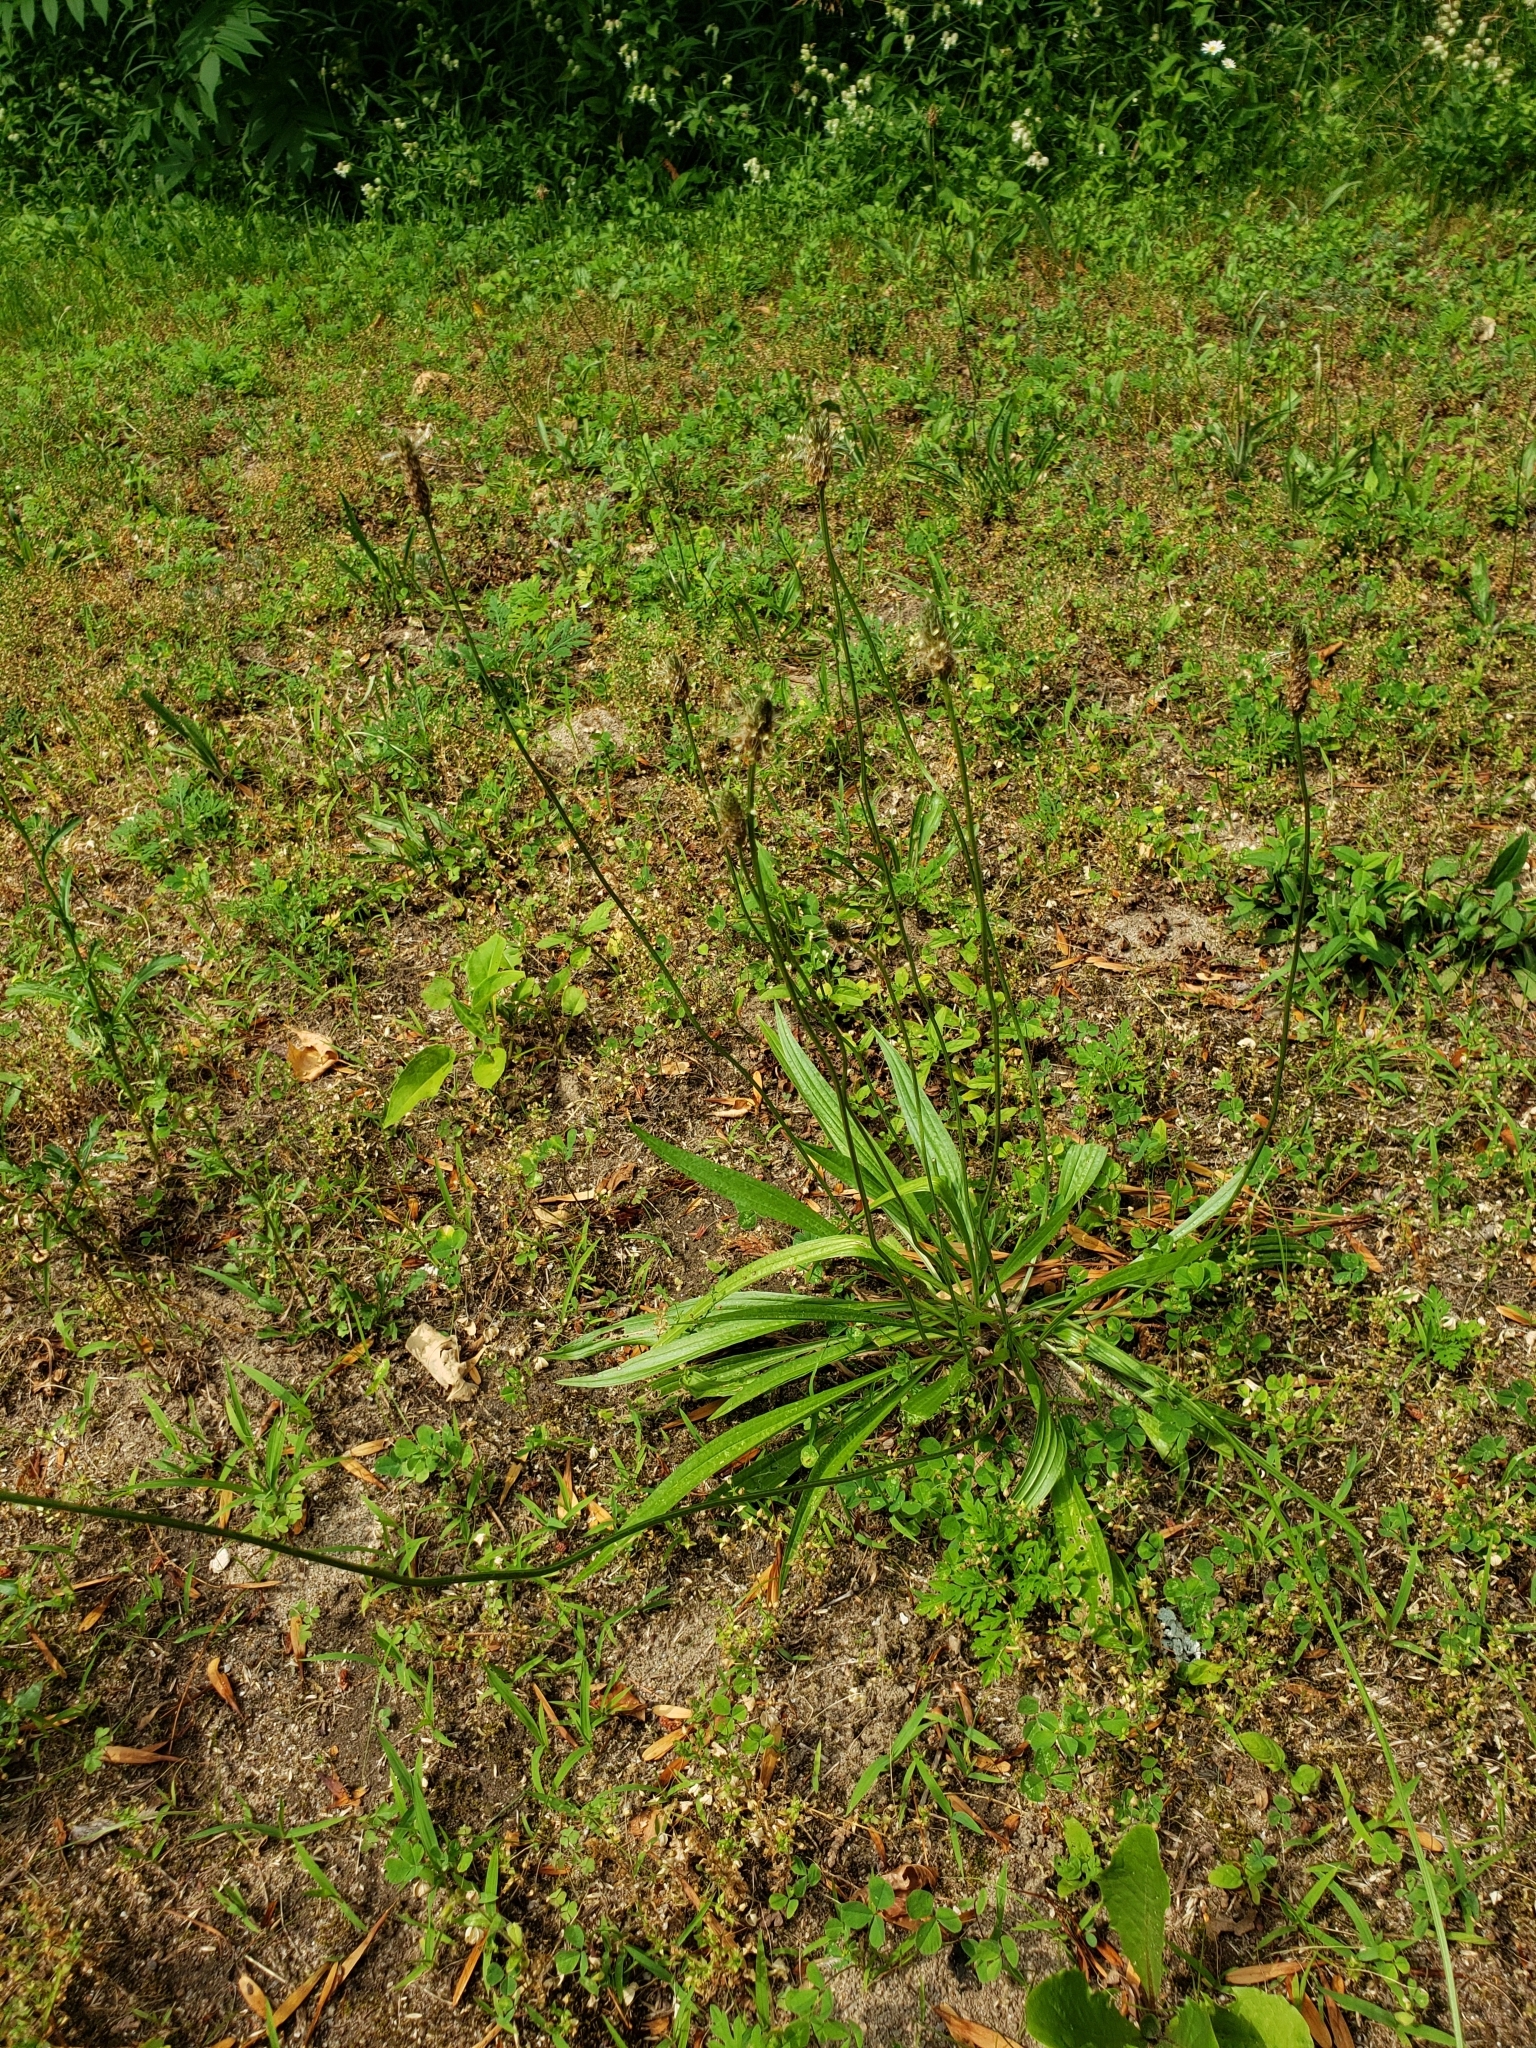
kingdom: Plantae
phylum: Tracheophyta
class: Magnoliopsida
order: Lamiales
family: Plantaginaceae
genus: Plantago
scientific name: Plantago lanceolata
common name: Ribwort plantain
